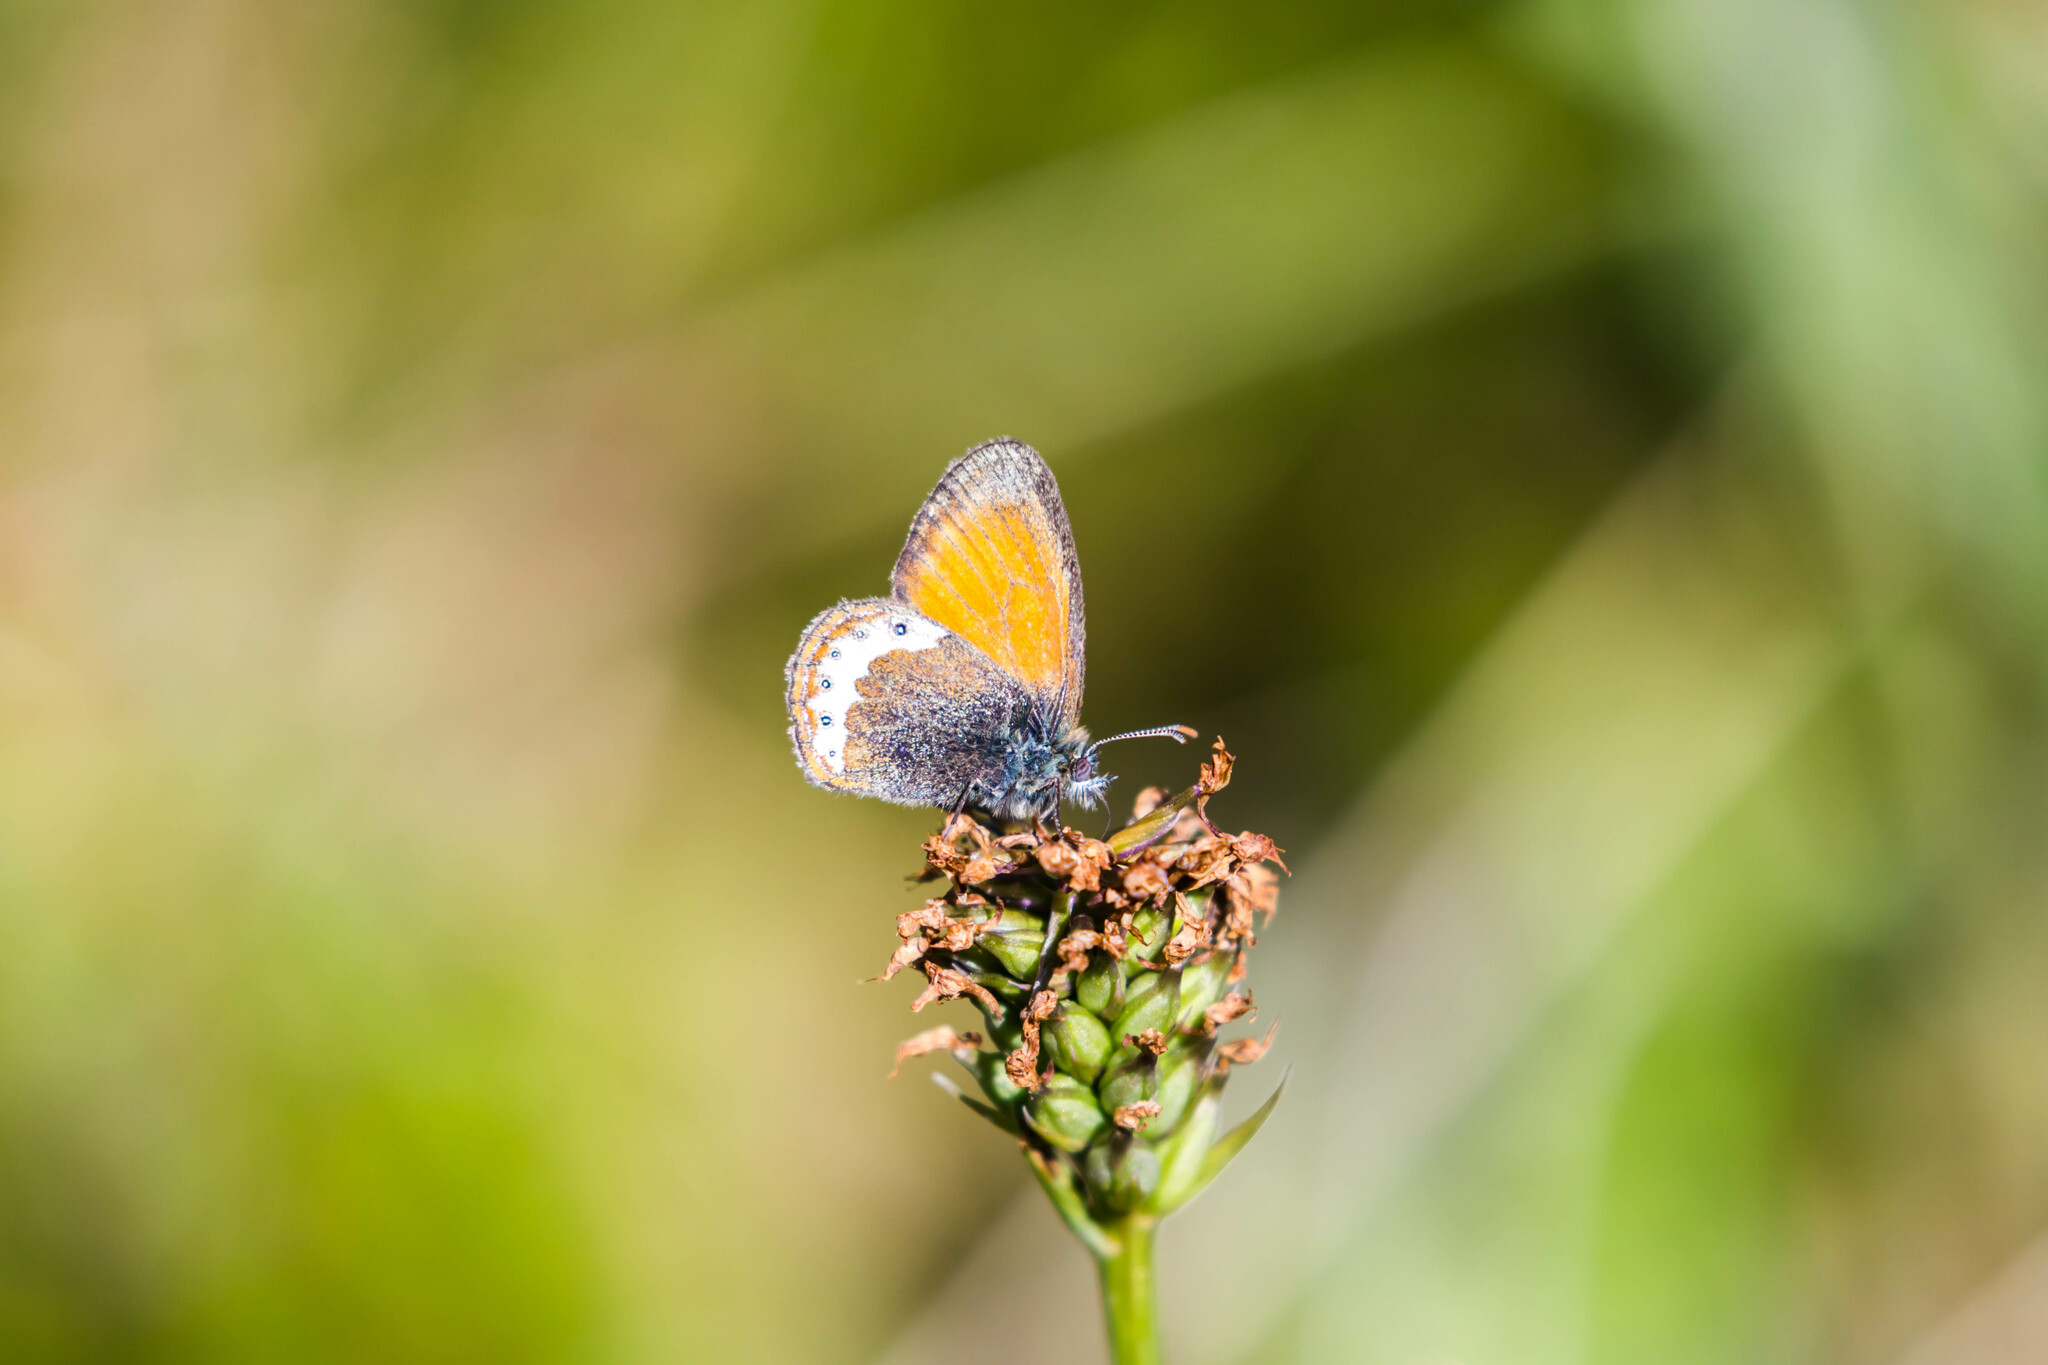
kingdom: Animalia
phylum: Arthropoda
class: Insecta
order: Lepidoptera
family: Nymphalidae
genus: Coenonympha
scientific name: Coenonympha
